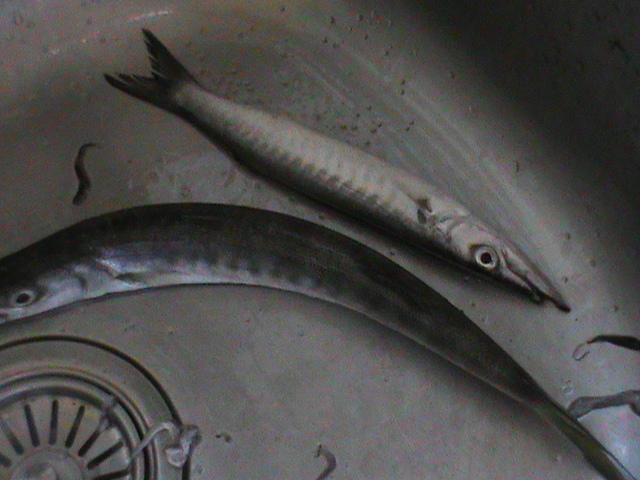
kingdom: Animalia
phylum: Chordata
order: Perciformes
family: Sphyraenidae
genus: Sphyraena
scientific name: Sphyraena jello
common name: Pickhandle barracuda
